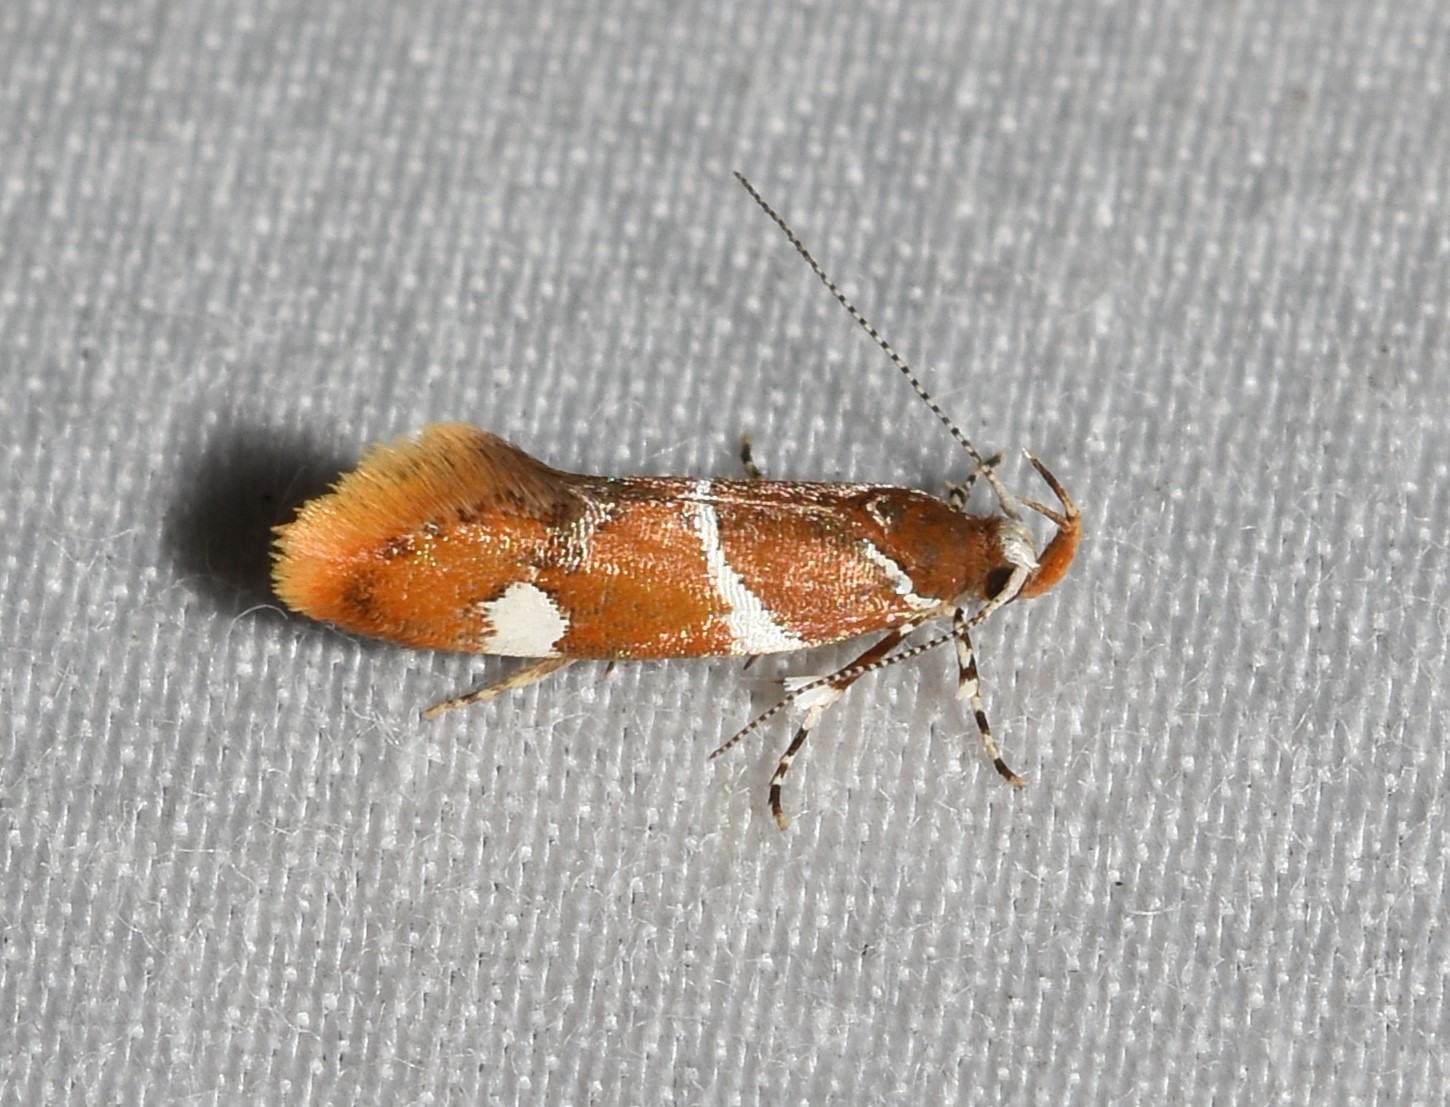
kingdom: Animalia
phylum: Arthropoda
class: Insecta
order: Lepidoptera
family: Oecophoridae
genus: Promalactis
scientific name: Promalactis suzukiella
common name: Moth
